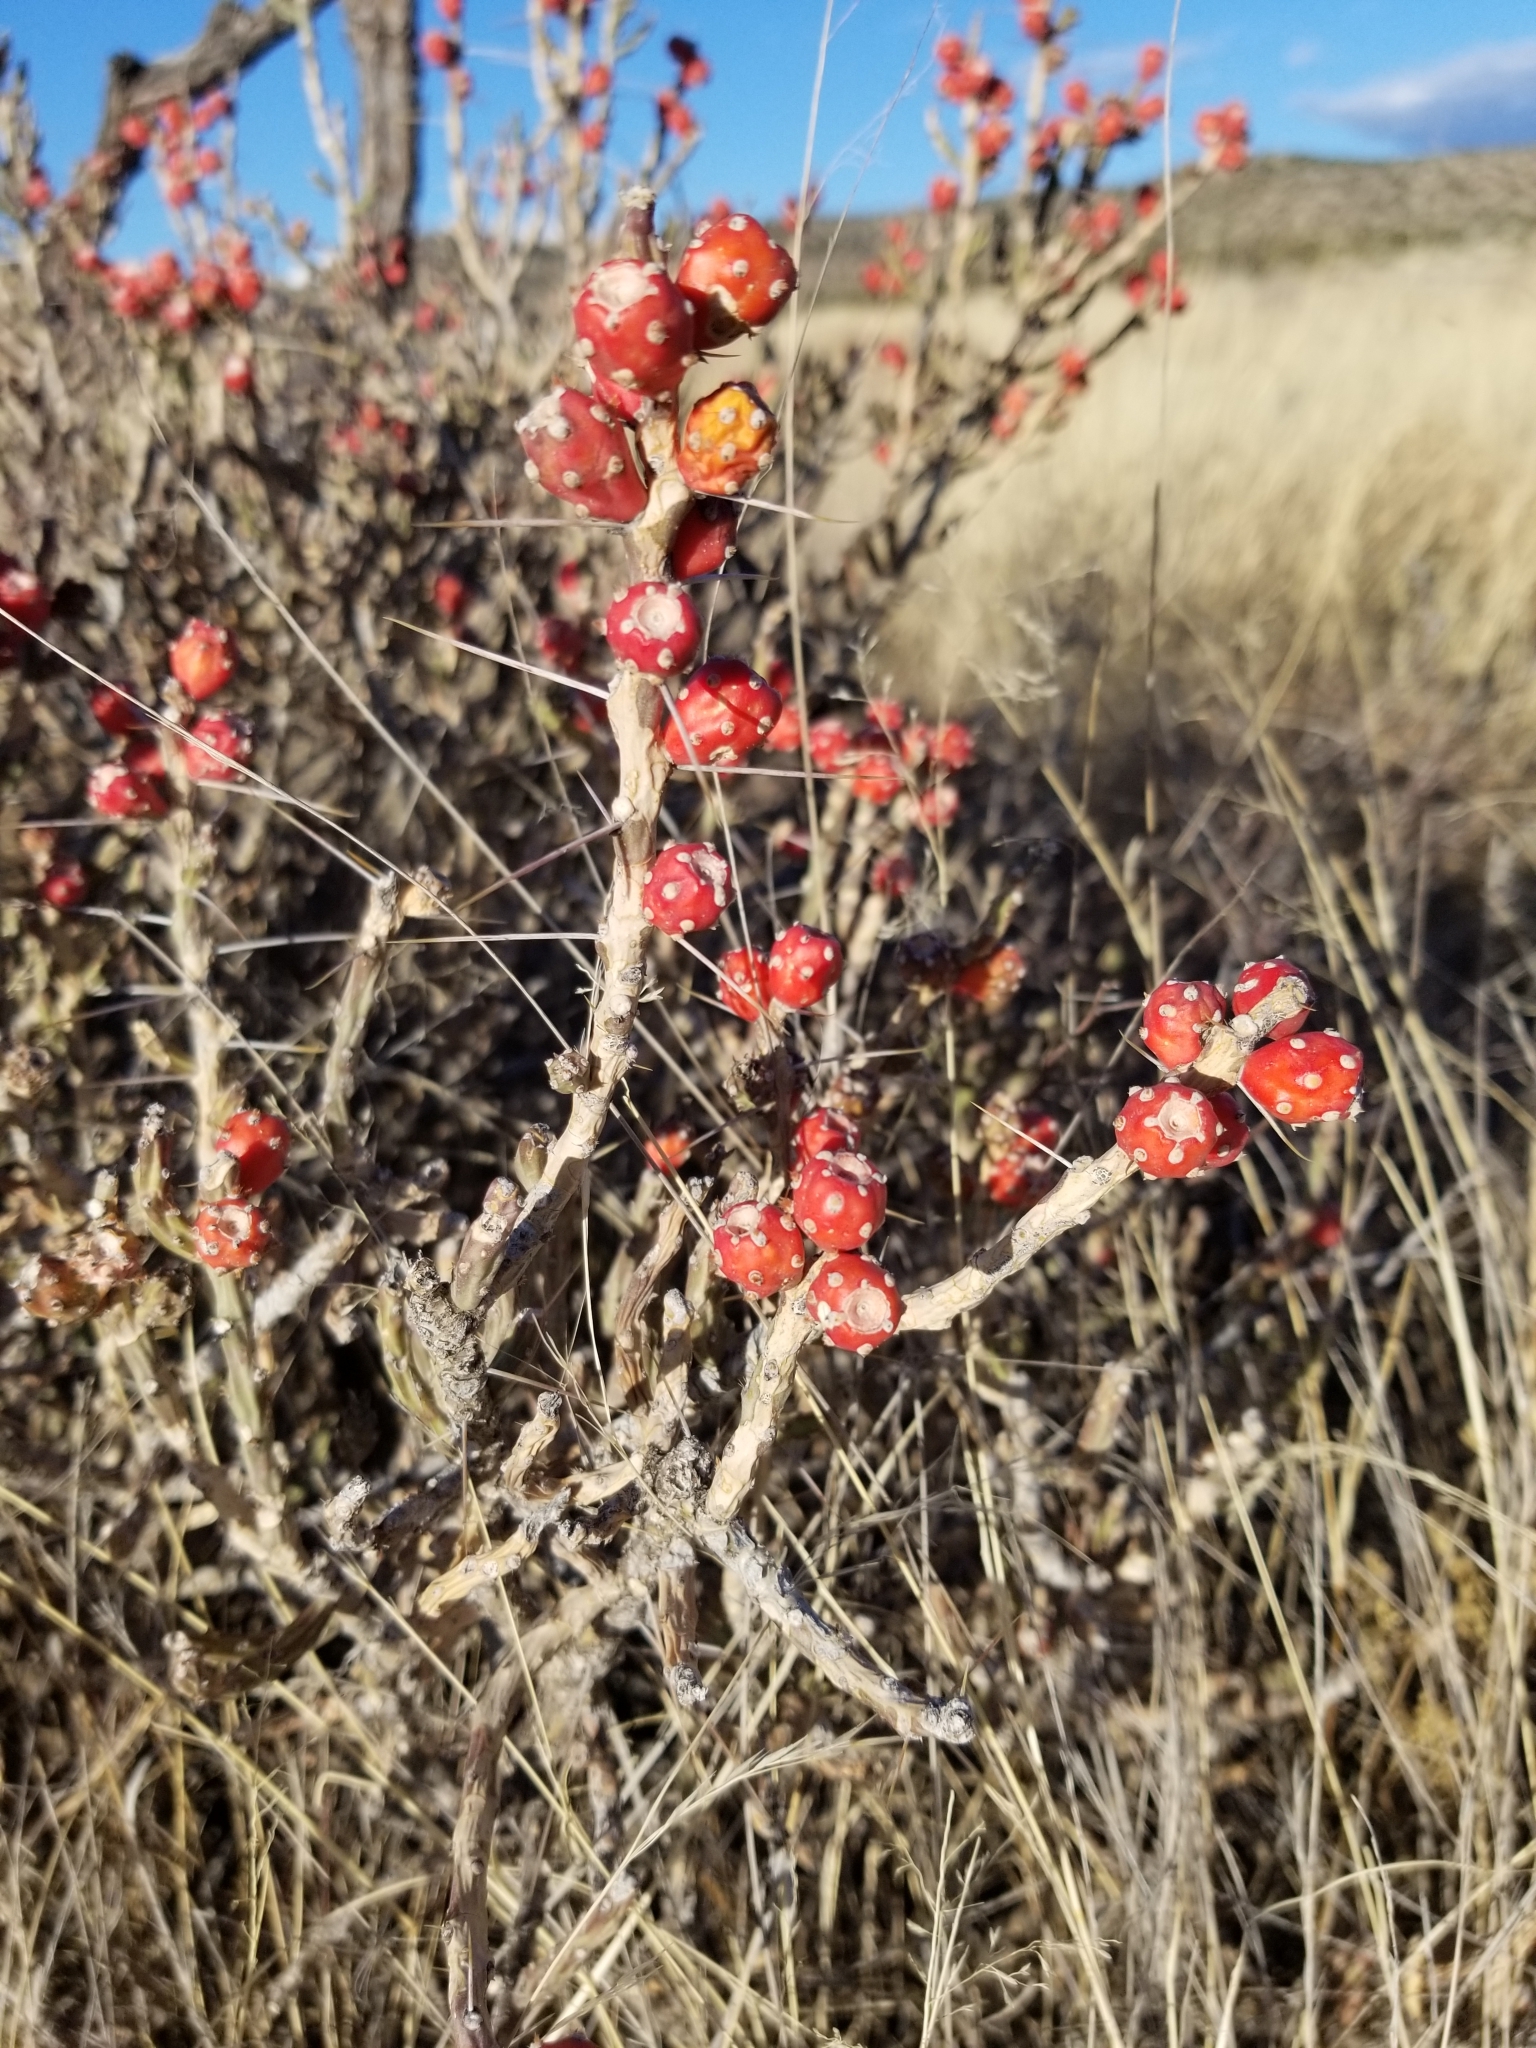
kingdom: Plantae
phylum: Tracheophyta
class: Magnoliopsida
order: Caryophyllales
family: Cactaceae
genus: Cylindropuntia
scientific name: Cylindropuntia leptocaulis
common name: Christmas cactus
